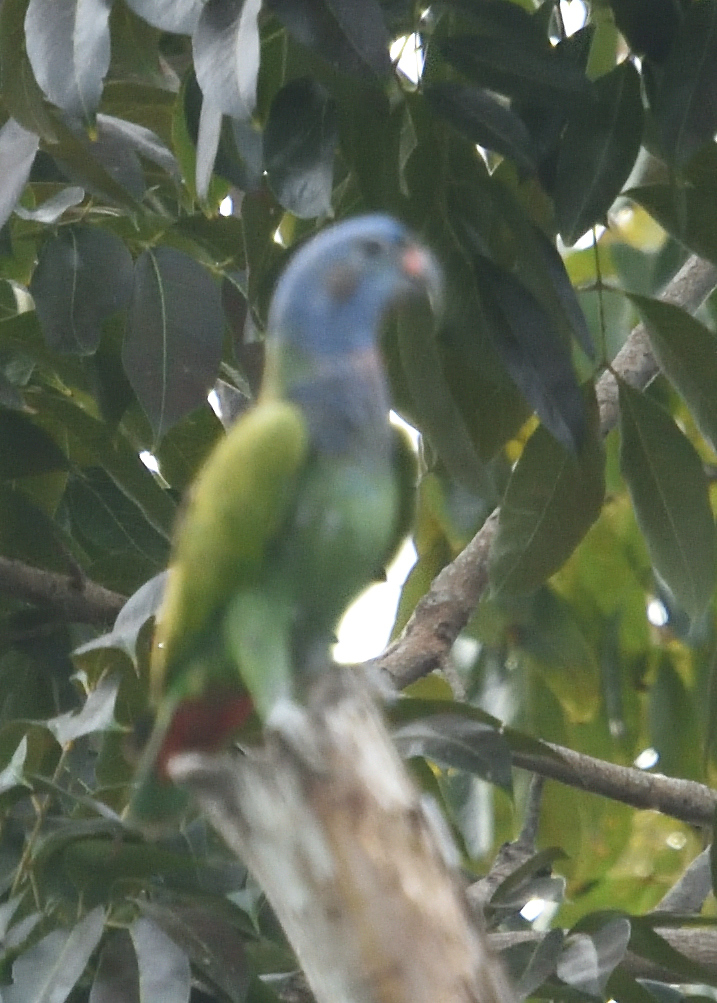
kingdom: Animalia
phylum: Chordata
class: Aves
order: Psittaciformes
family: Psittacidae
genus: Pionus
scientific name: Pionus menstruus
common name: Blue-headed parrot
